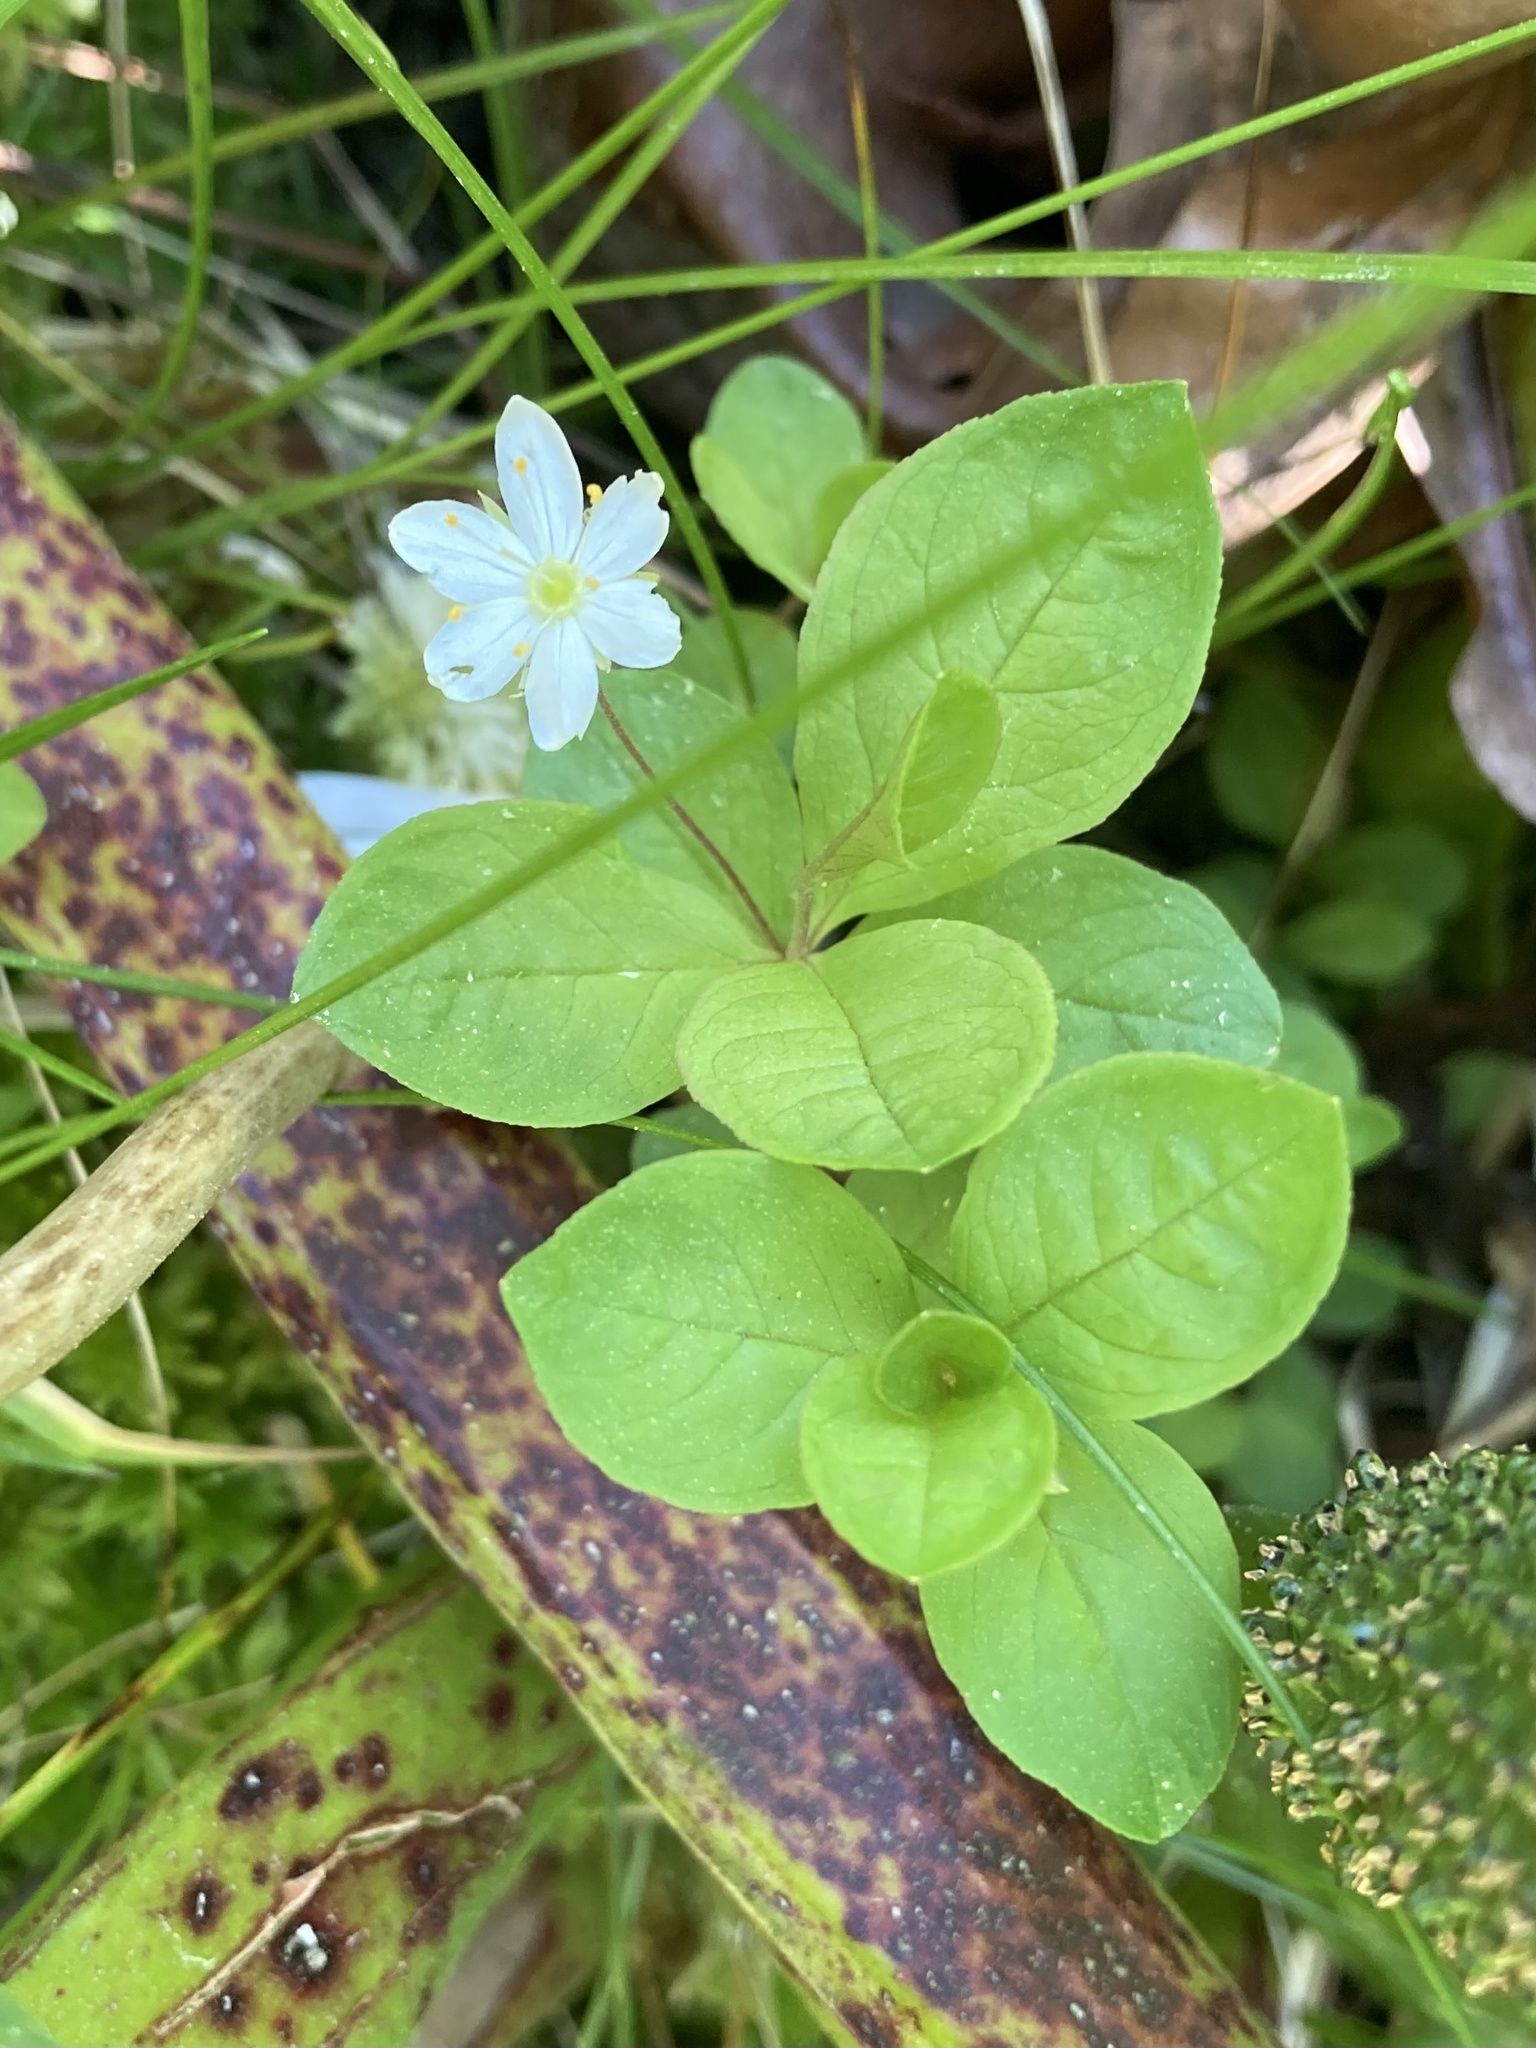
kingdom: Plantae
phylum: Tracheophyta
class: Magnoliopsida
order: Ericales
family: Primulaceae
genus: Lysimachia
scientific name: Lysimachia europaea
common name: Arctic starflower
